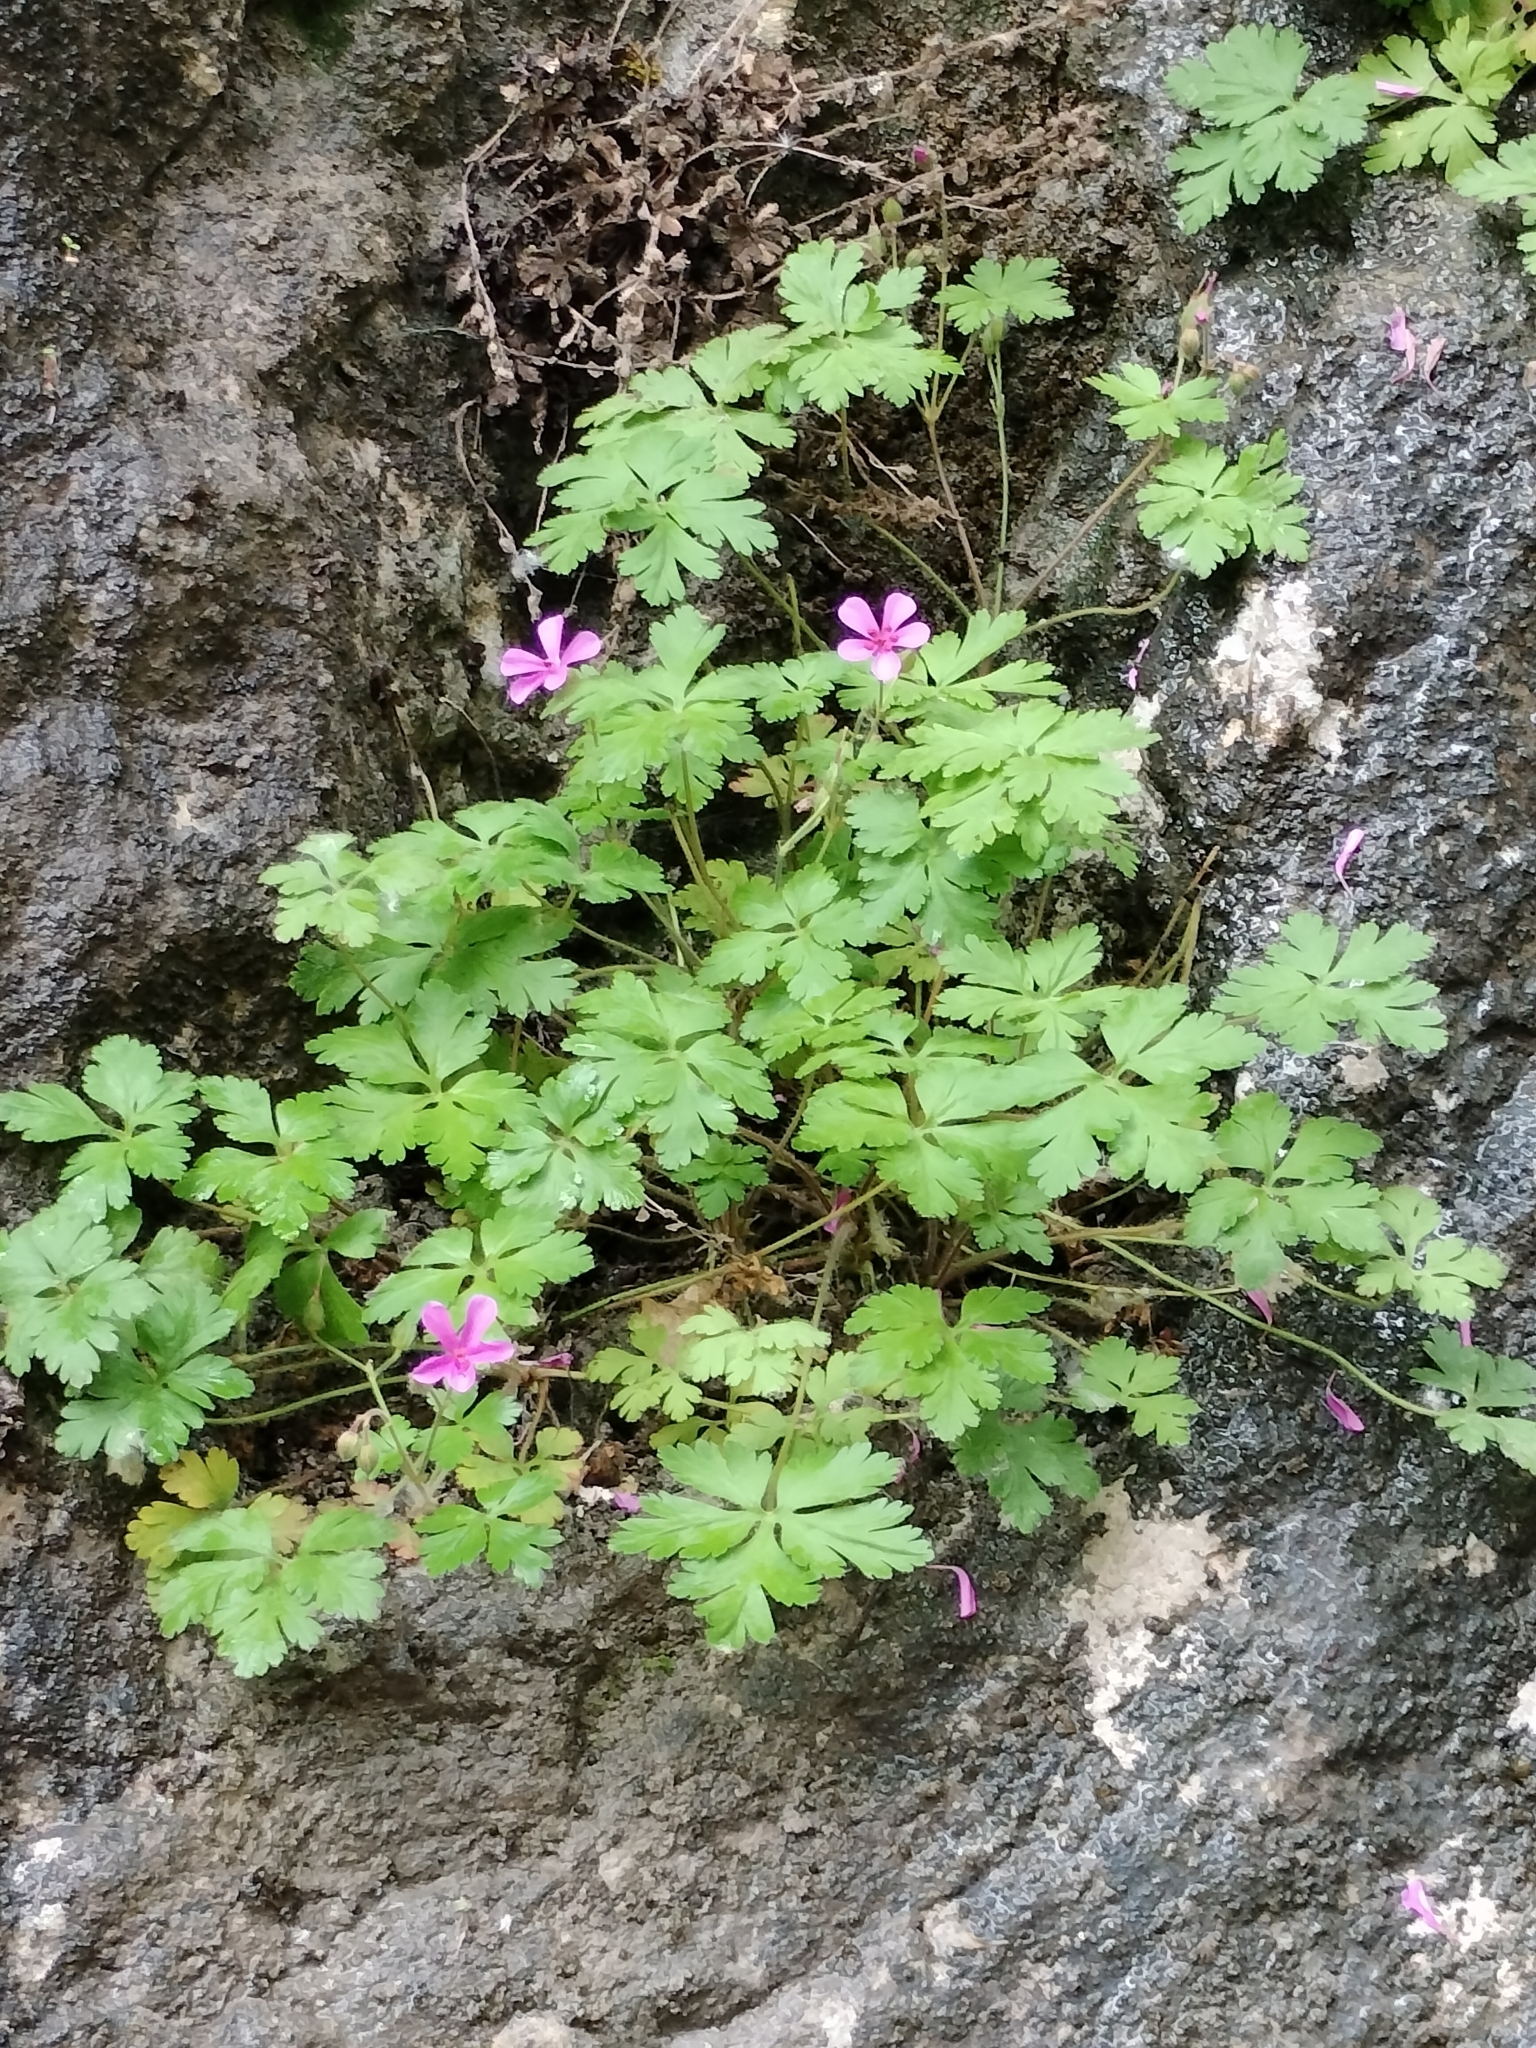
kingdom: Plantae
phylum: Tracheophyta
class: Magnoliopsida
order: Geraniales
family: Geraniaceae
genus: Geranium
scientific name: Geranium cataractarum
